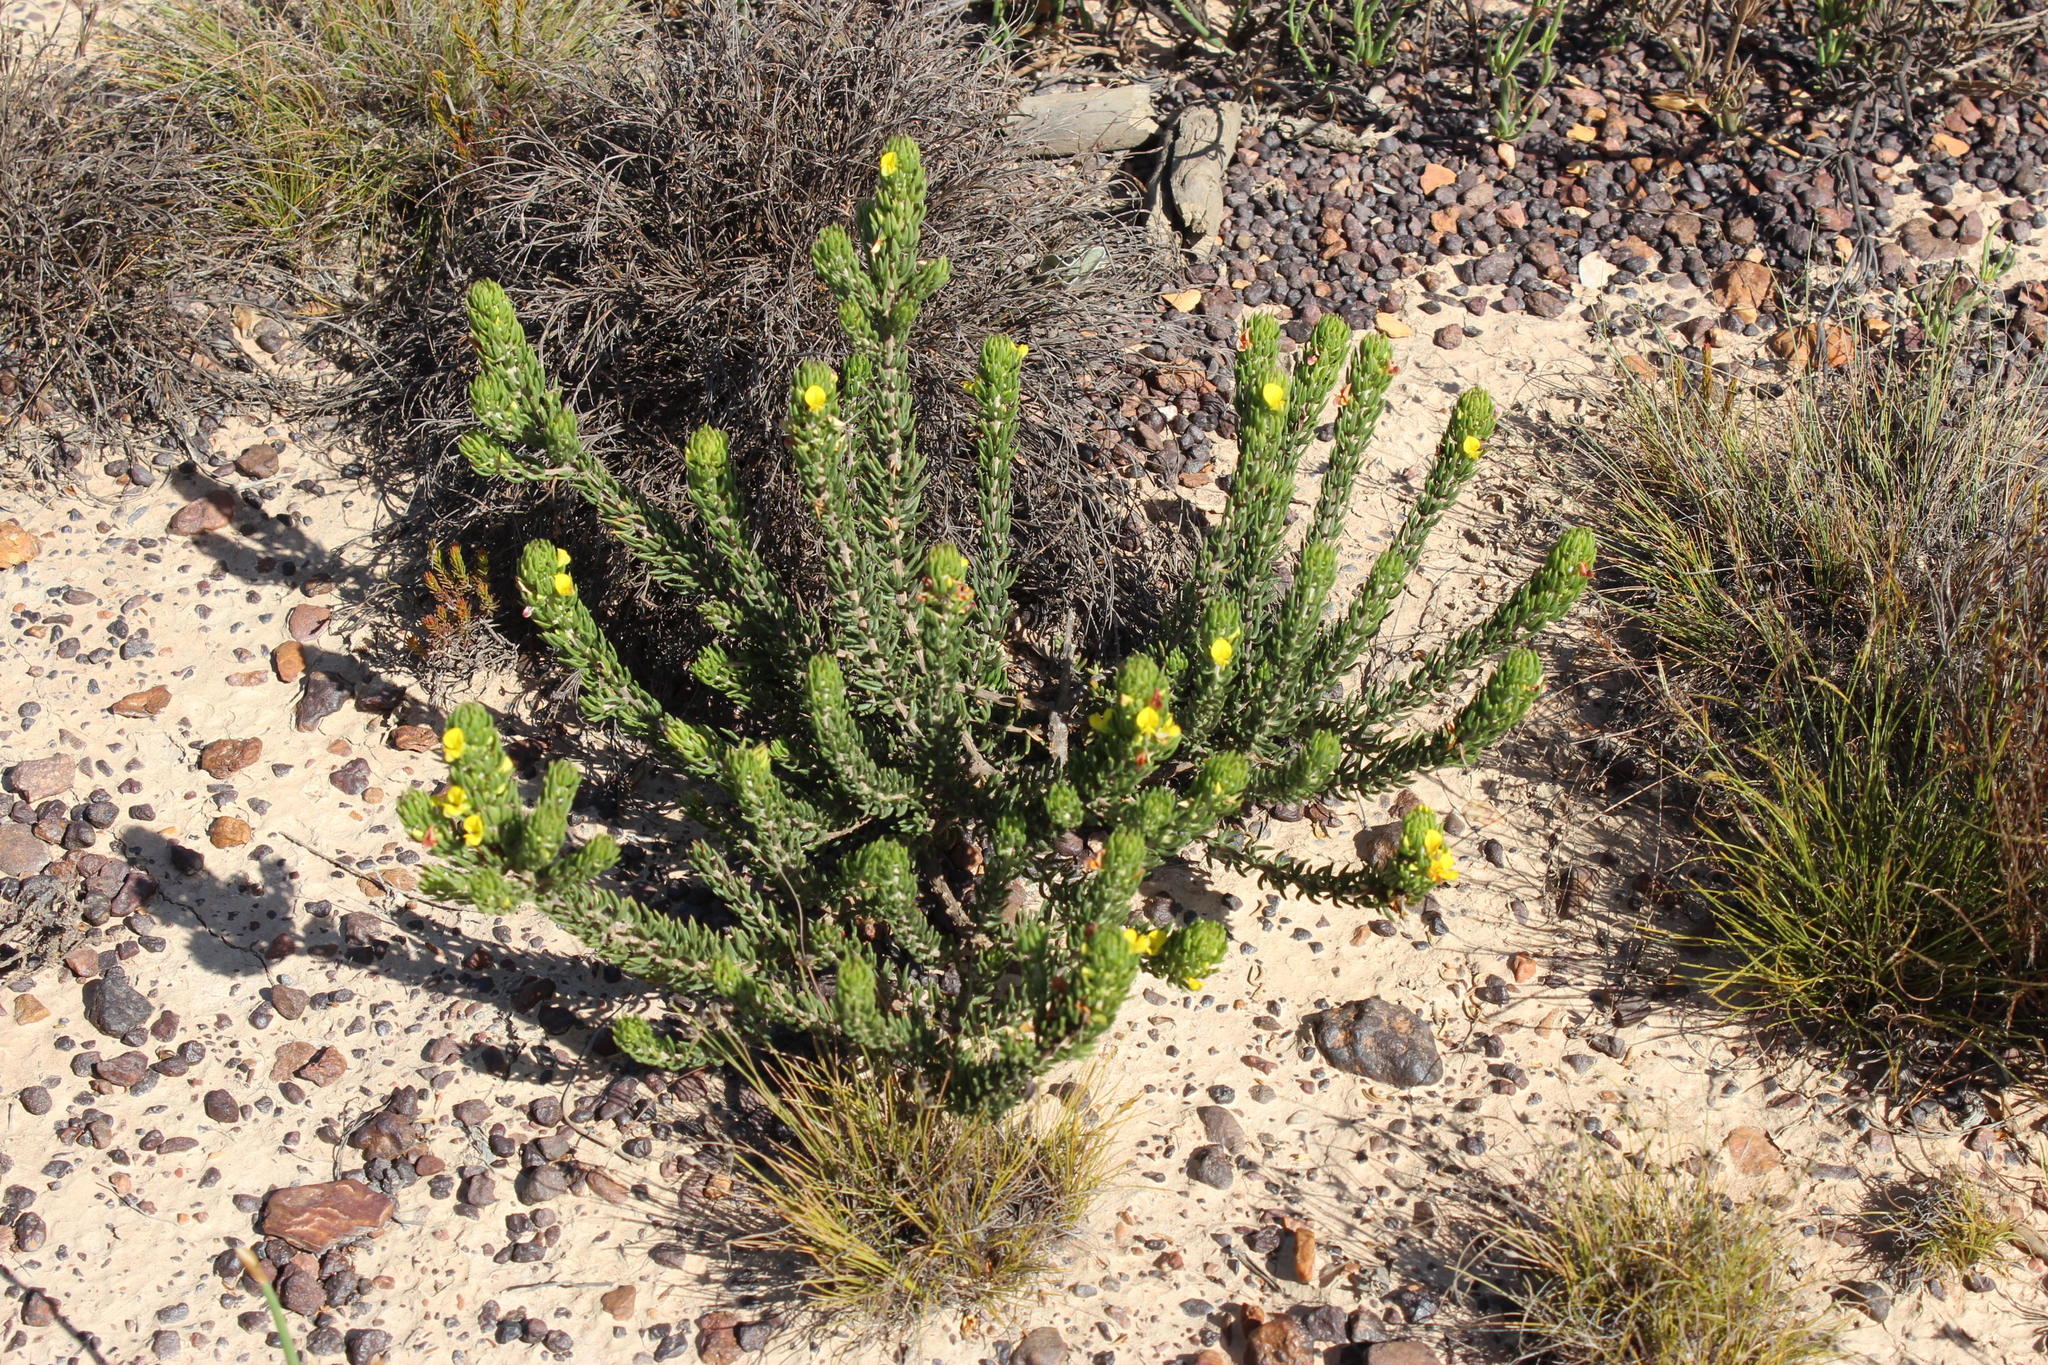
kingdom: Plantae
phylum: Tracheophyta
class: Magnoliopsida
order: Fabales
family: Fabaceae
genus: Aspalathus
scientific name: Aspalathus mundiana
